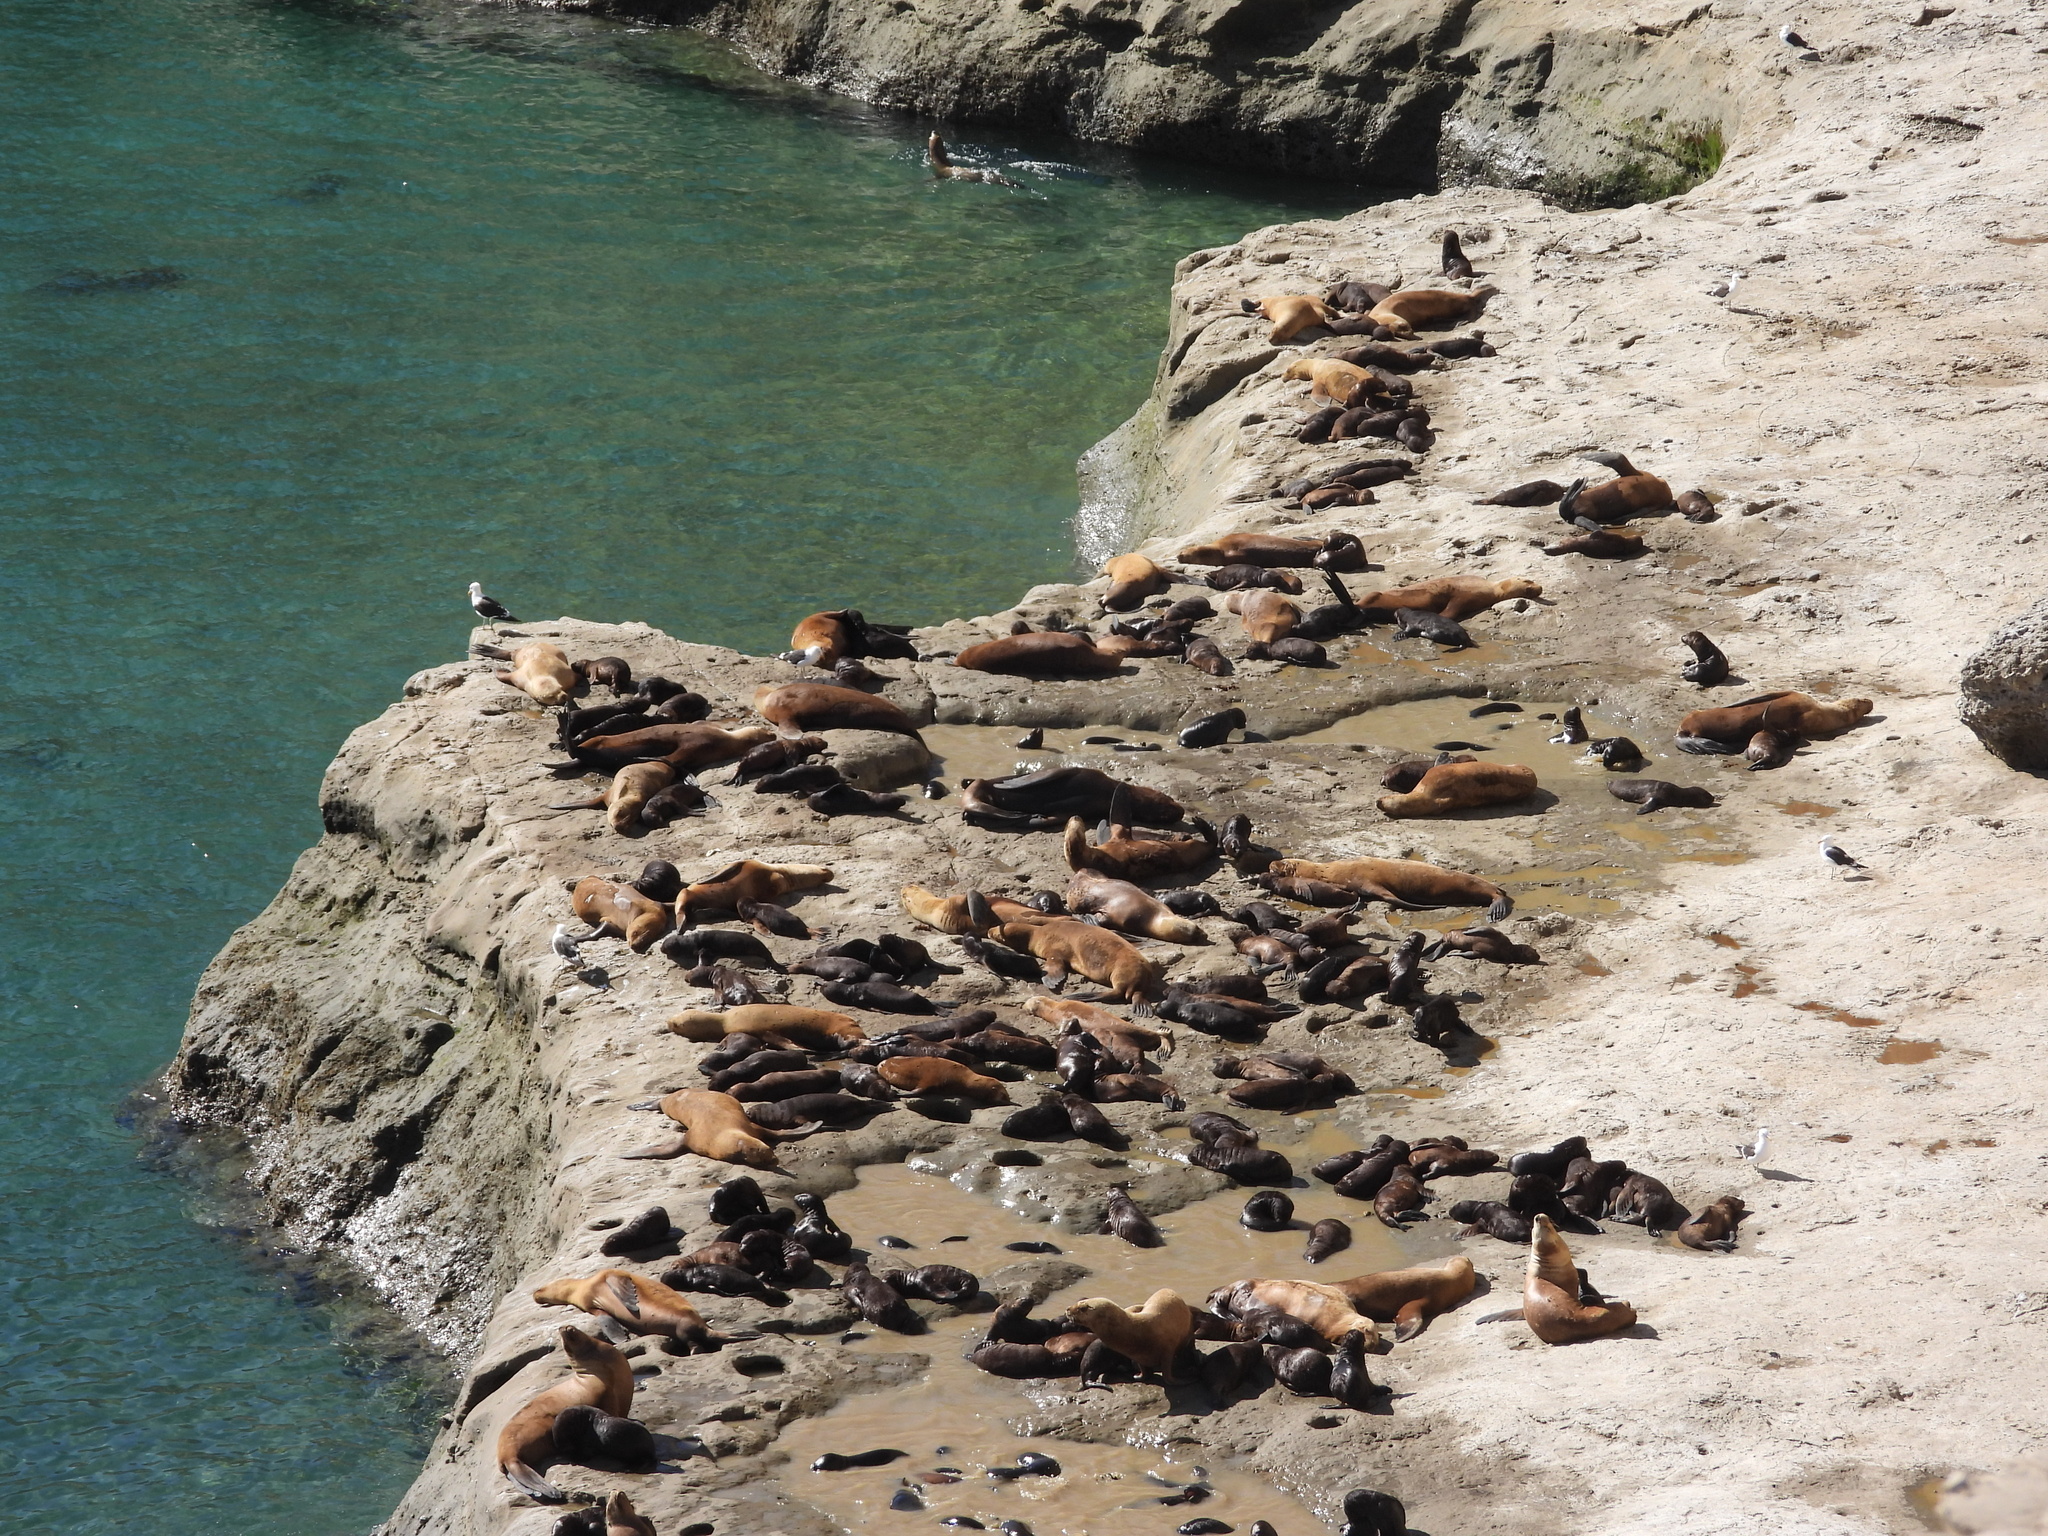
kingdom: Animalia
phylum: Chordata
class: Mammalia
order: Carnivora
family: Otariidae
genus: Otaria
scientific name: Otaria byronia
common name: South american sea lion
